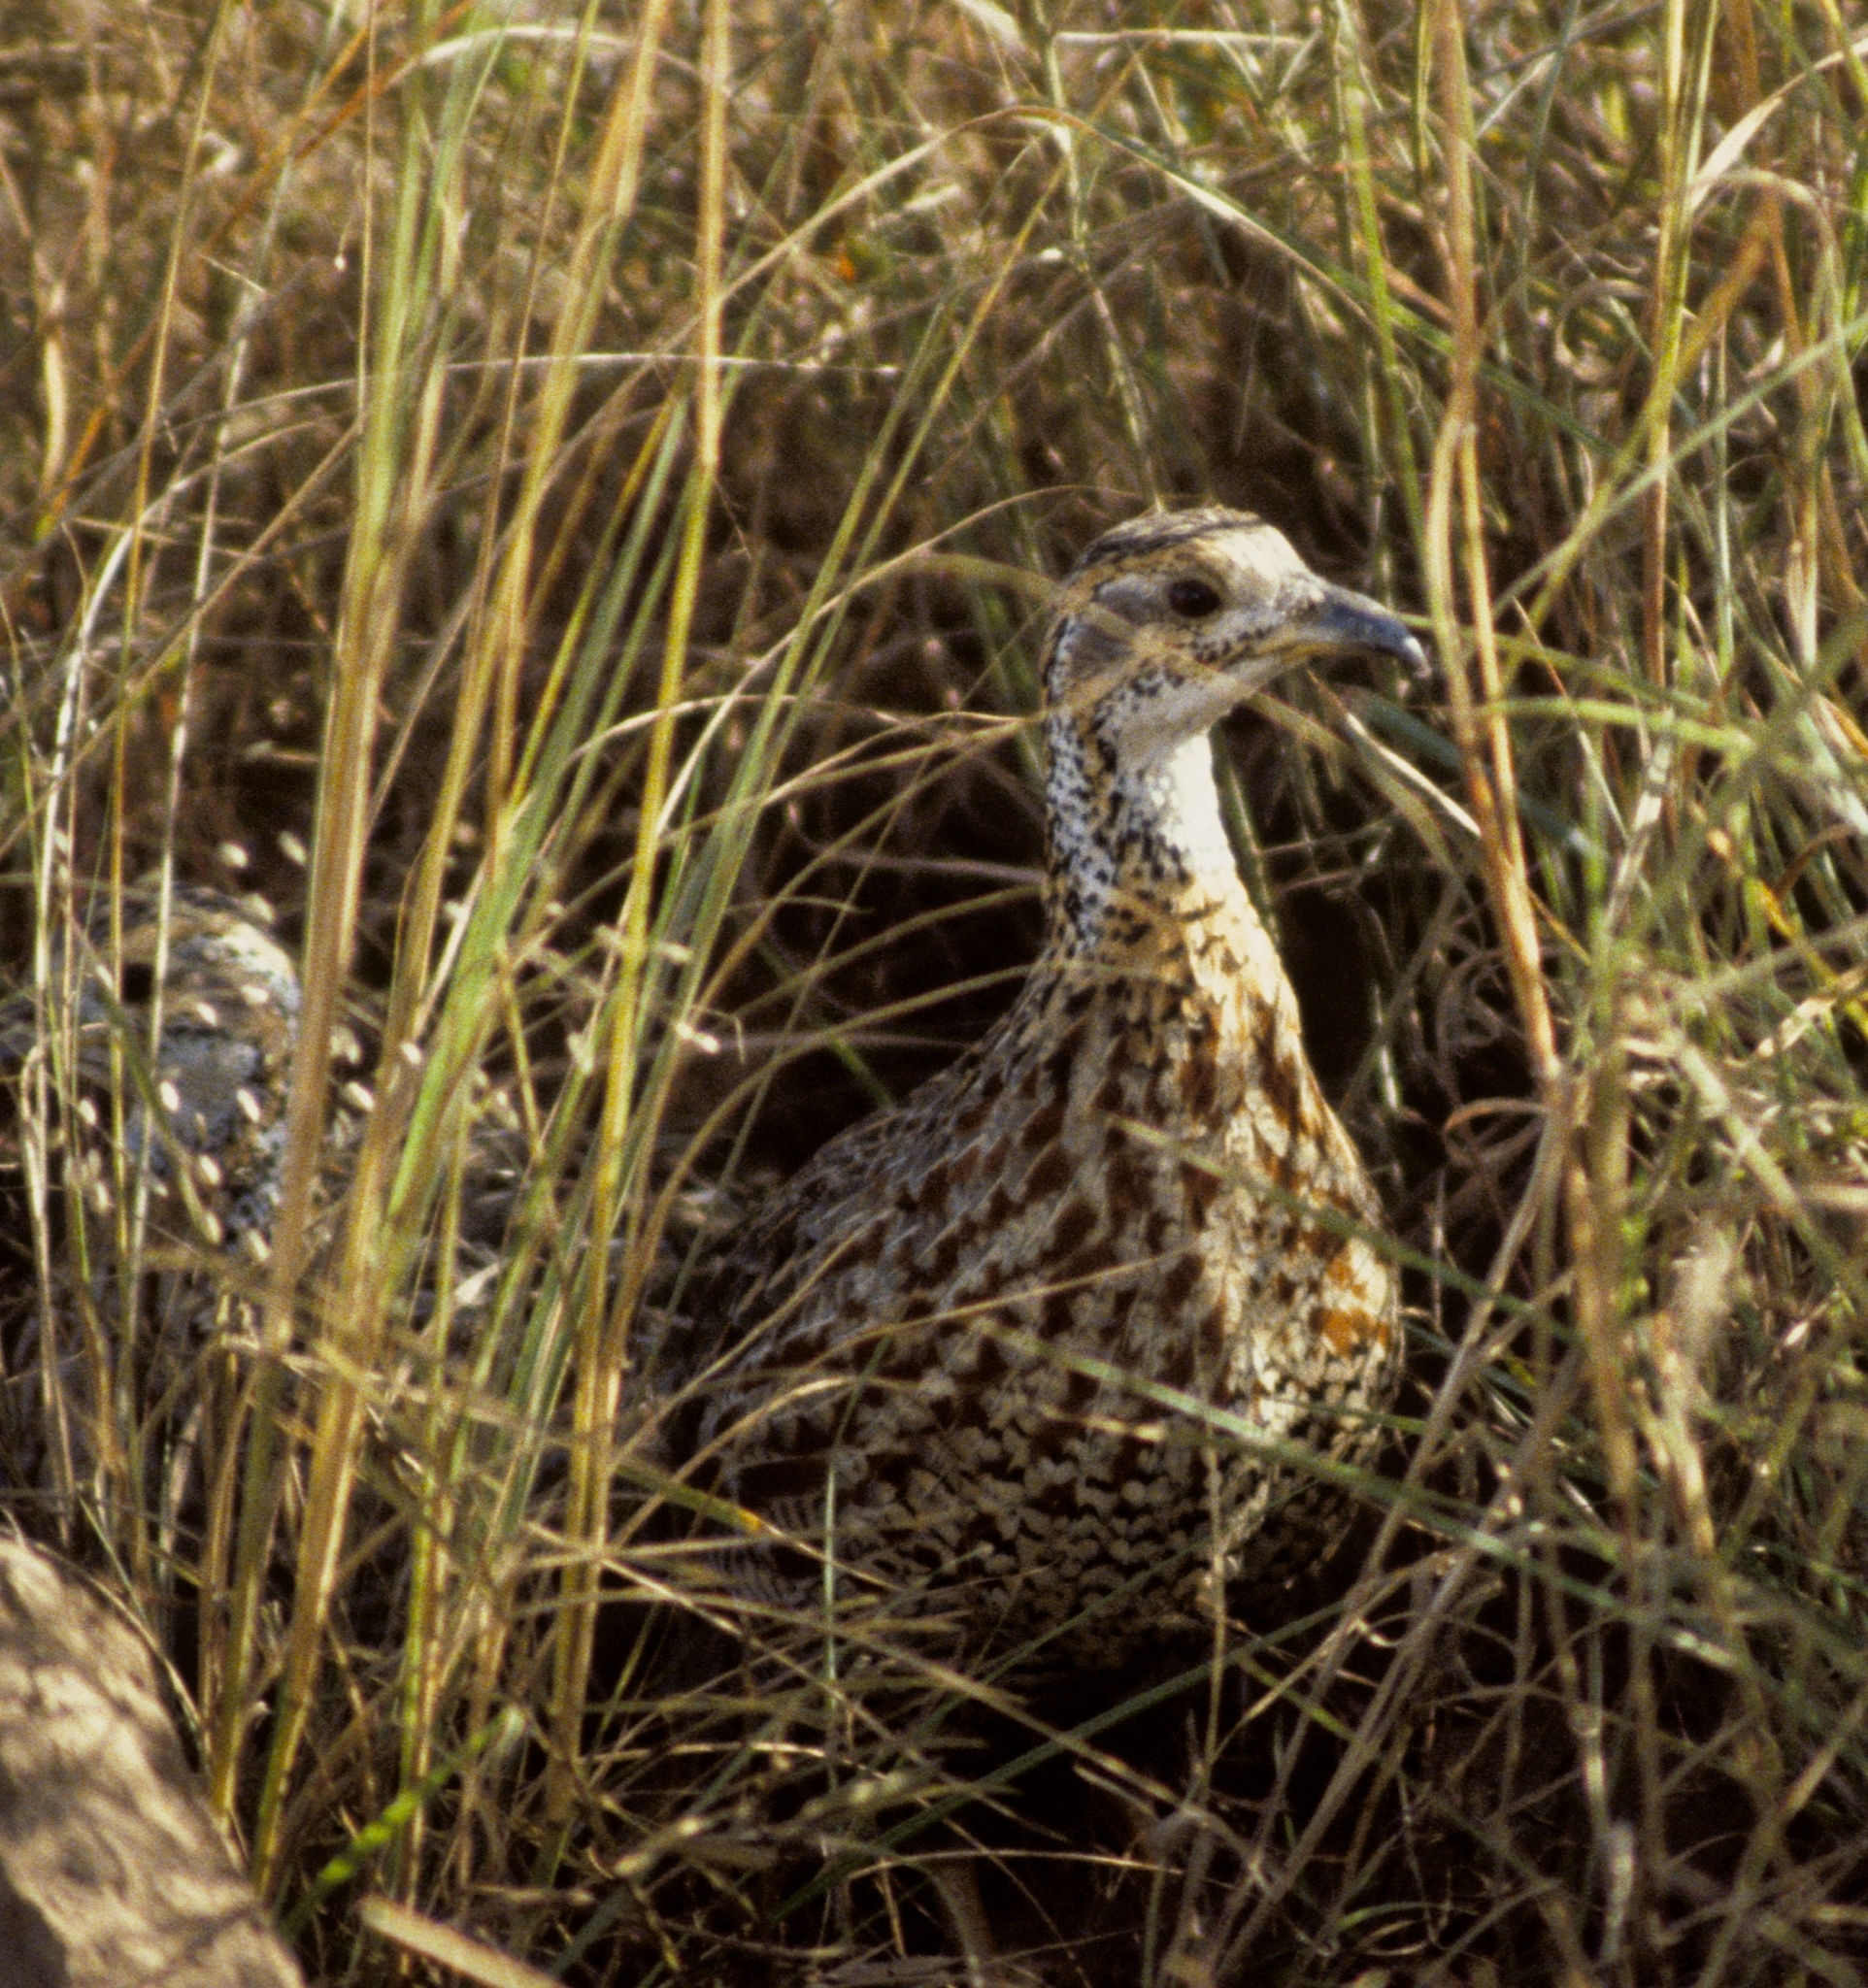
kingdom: Animalia
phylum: Chordata
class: Aves
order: Galliformes
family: Phasianidae
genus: Scleroptila
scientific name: Scleroptila shelleyi
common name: Shelley's francolin
